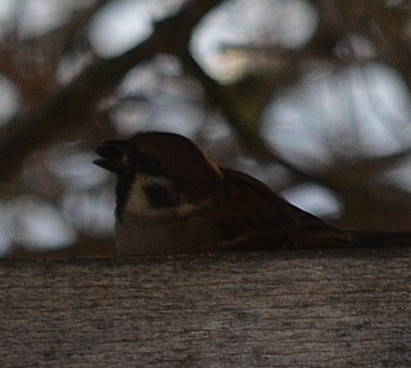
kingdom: Animalia
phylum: Chordata
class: Aves
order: Passeriformes
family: Passeridae
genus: Passer
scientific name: Passer montanus
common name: Eurasian tree sparrow
